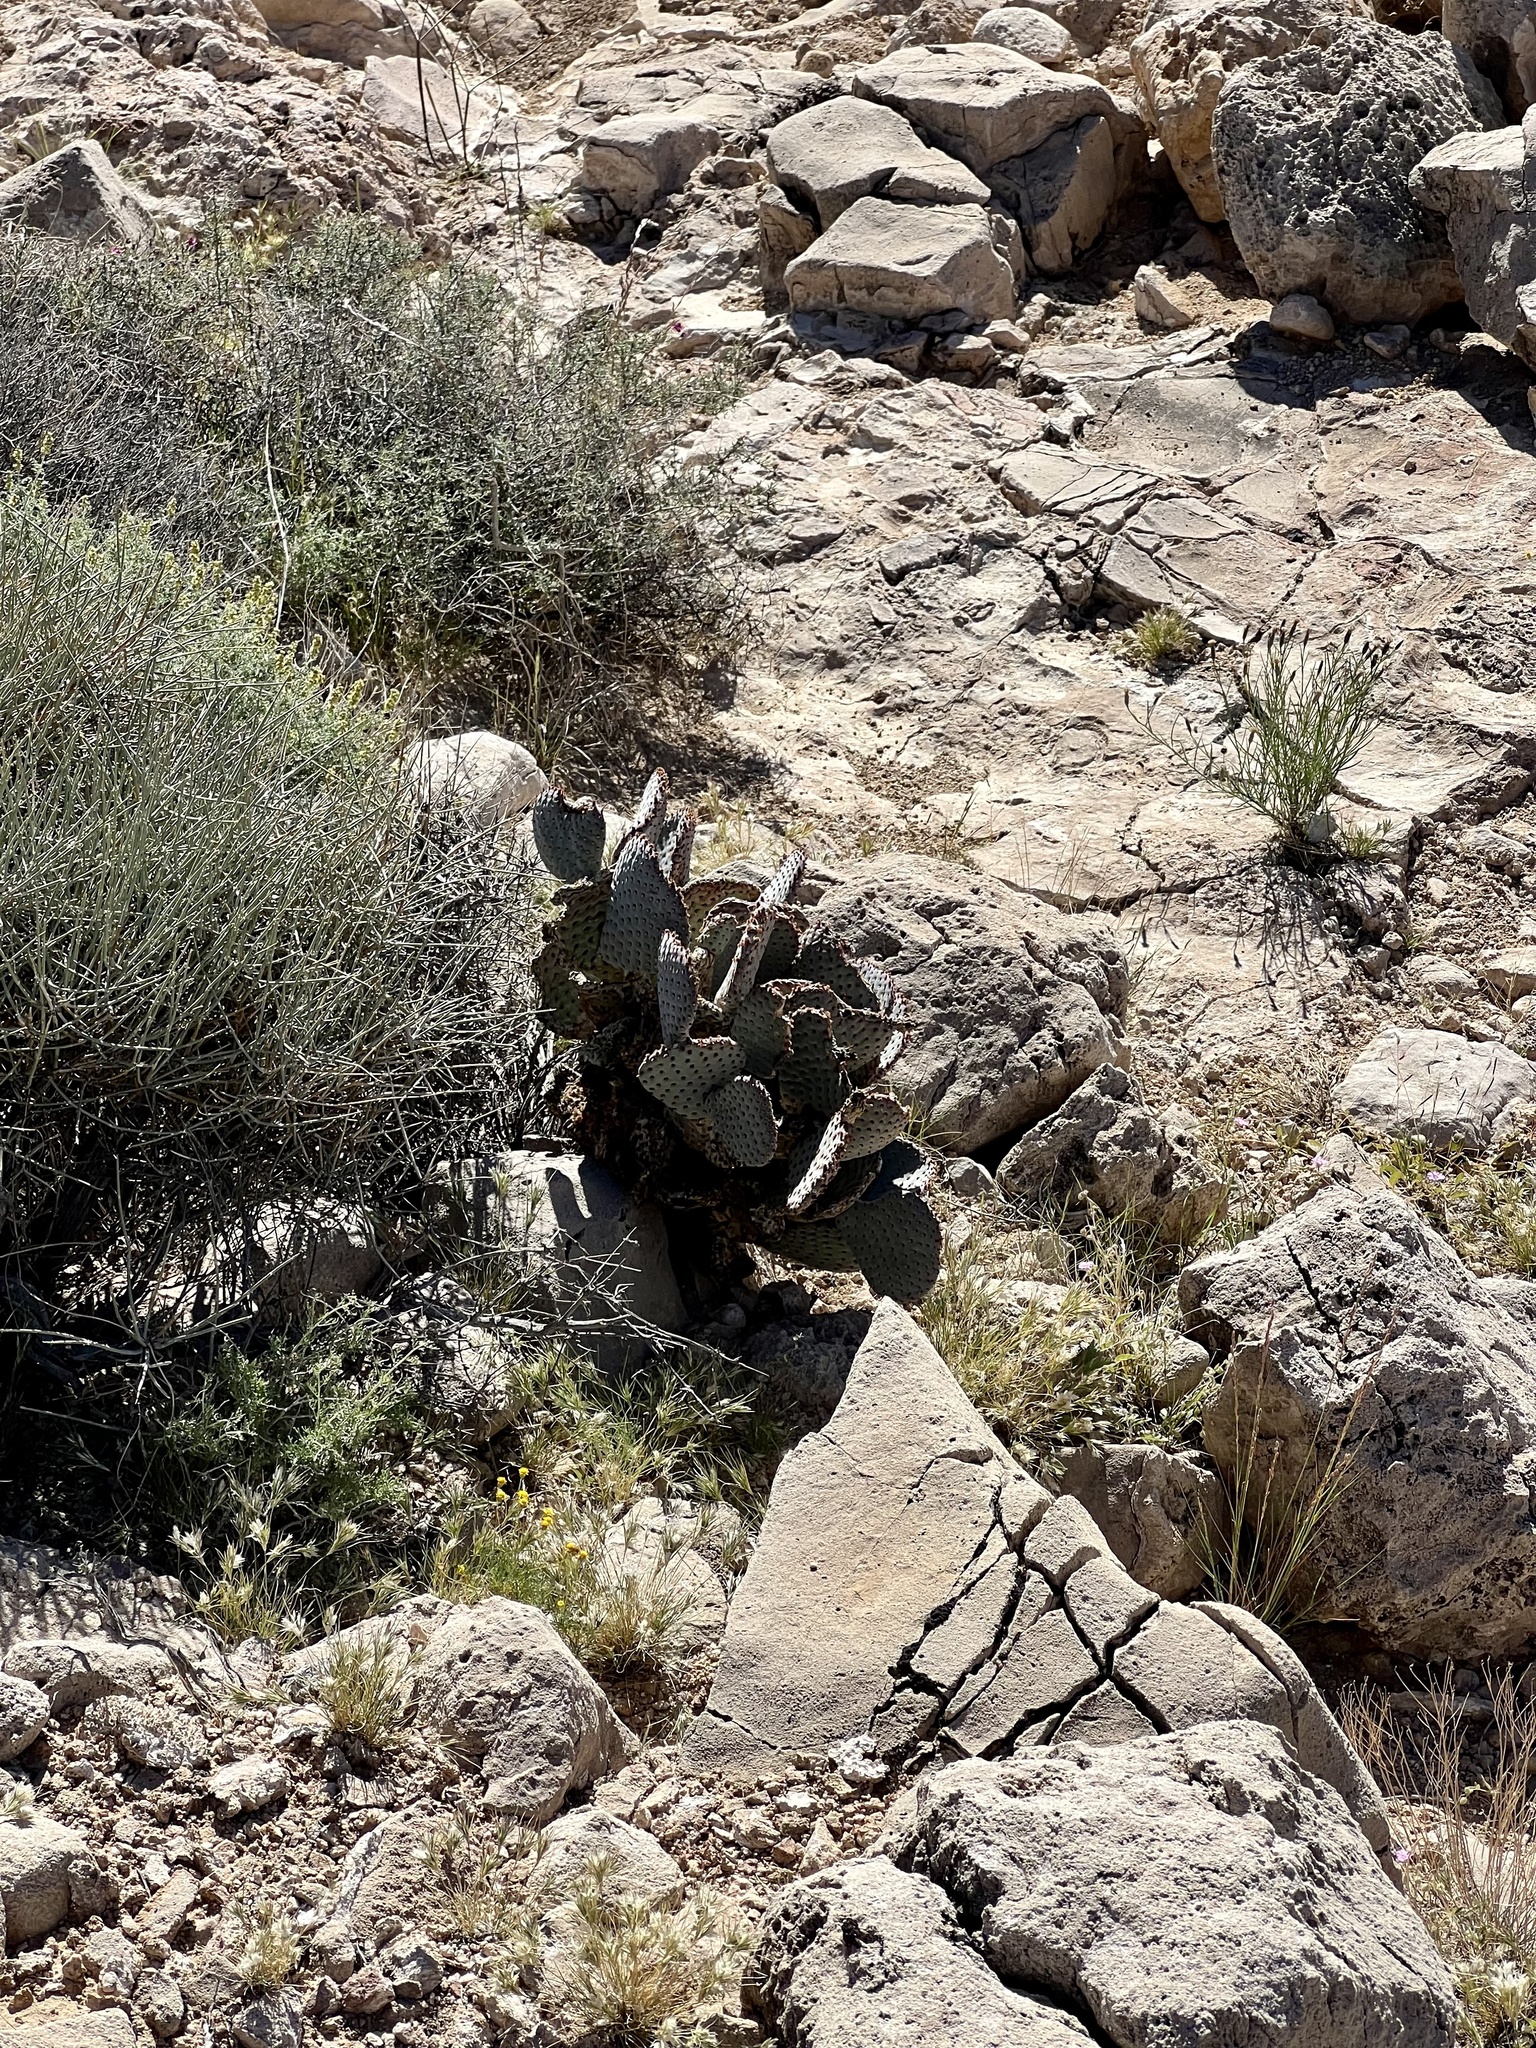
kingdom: Plantae
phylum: Tracheophyta
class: Magnoliopsida
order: Caryophyllales
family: Cactaceae
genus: Opuntia
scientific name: Opuntia basilaris
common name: Beavertail prickly-pear
